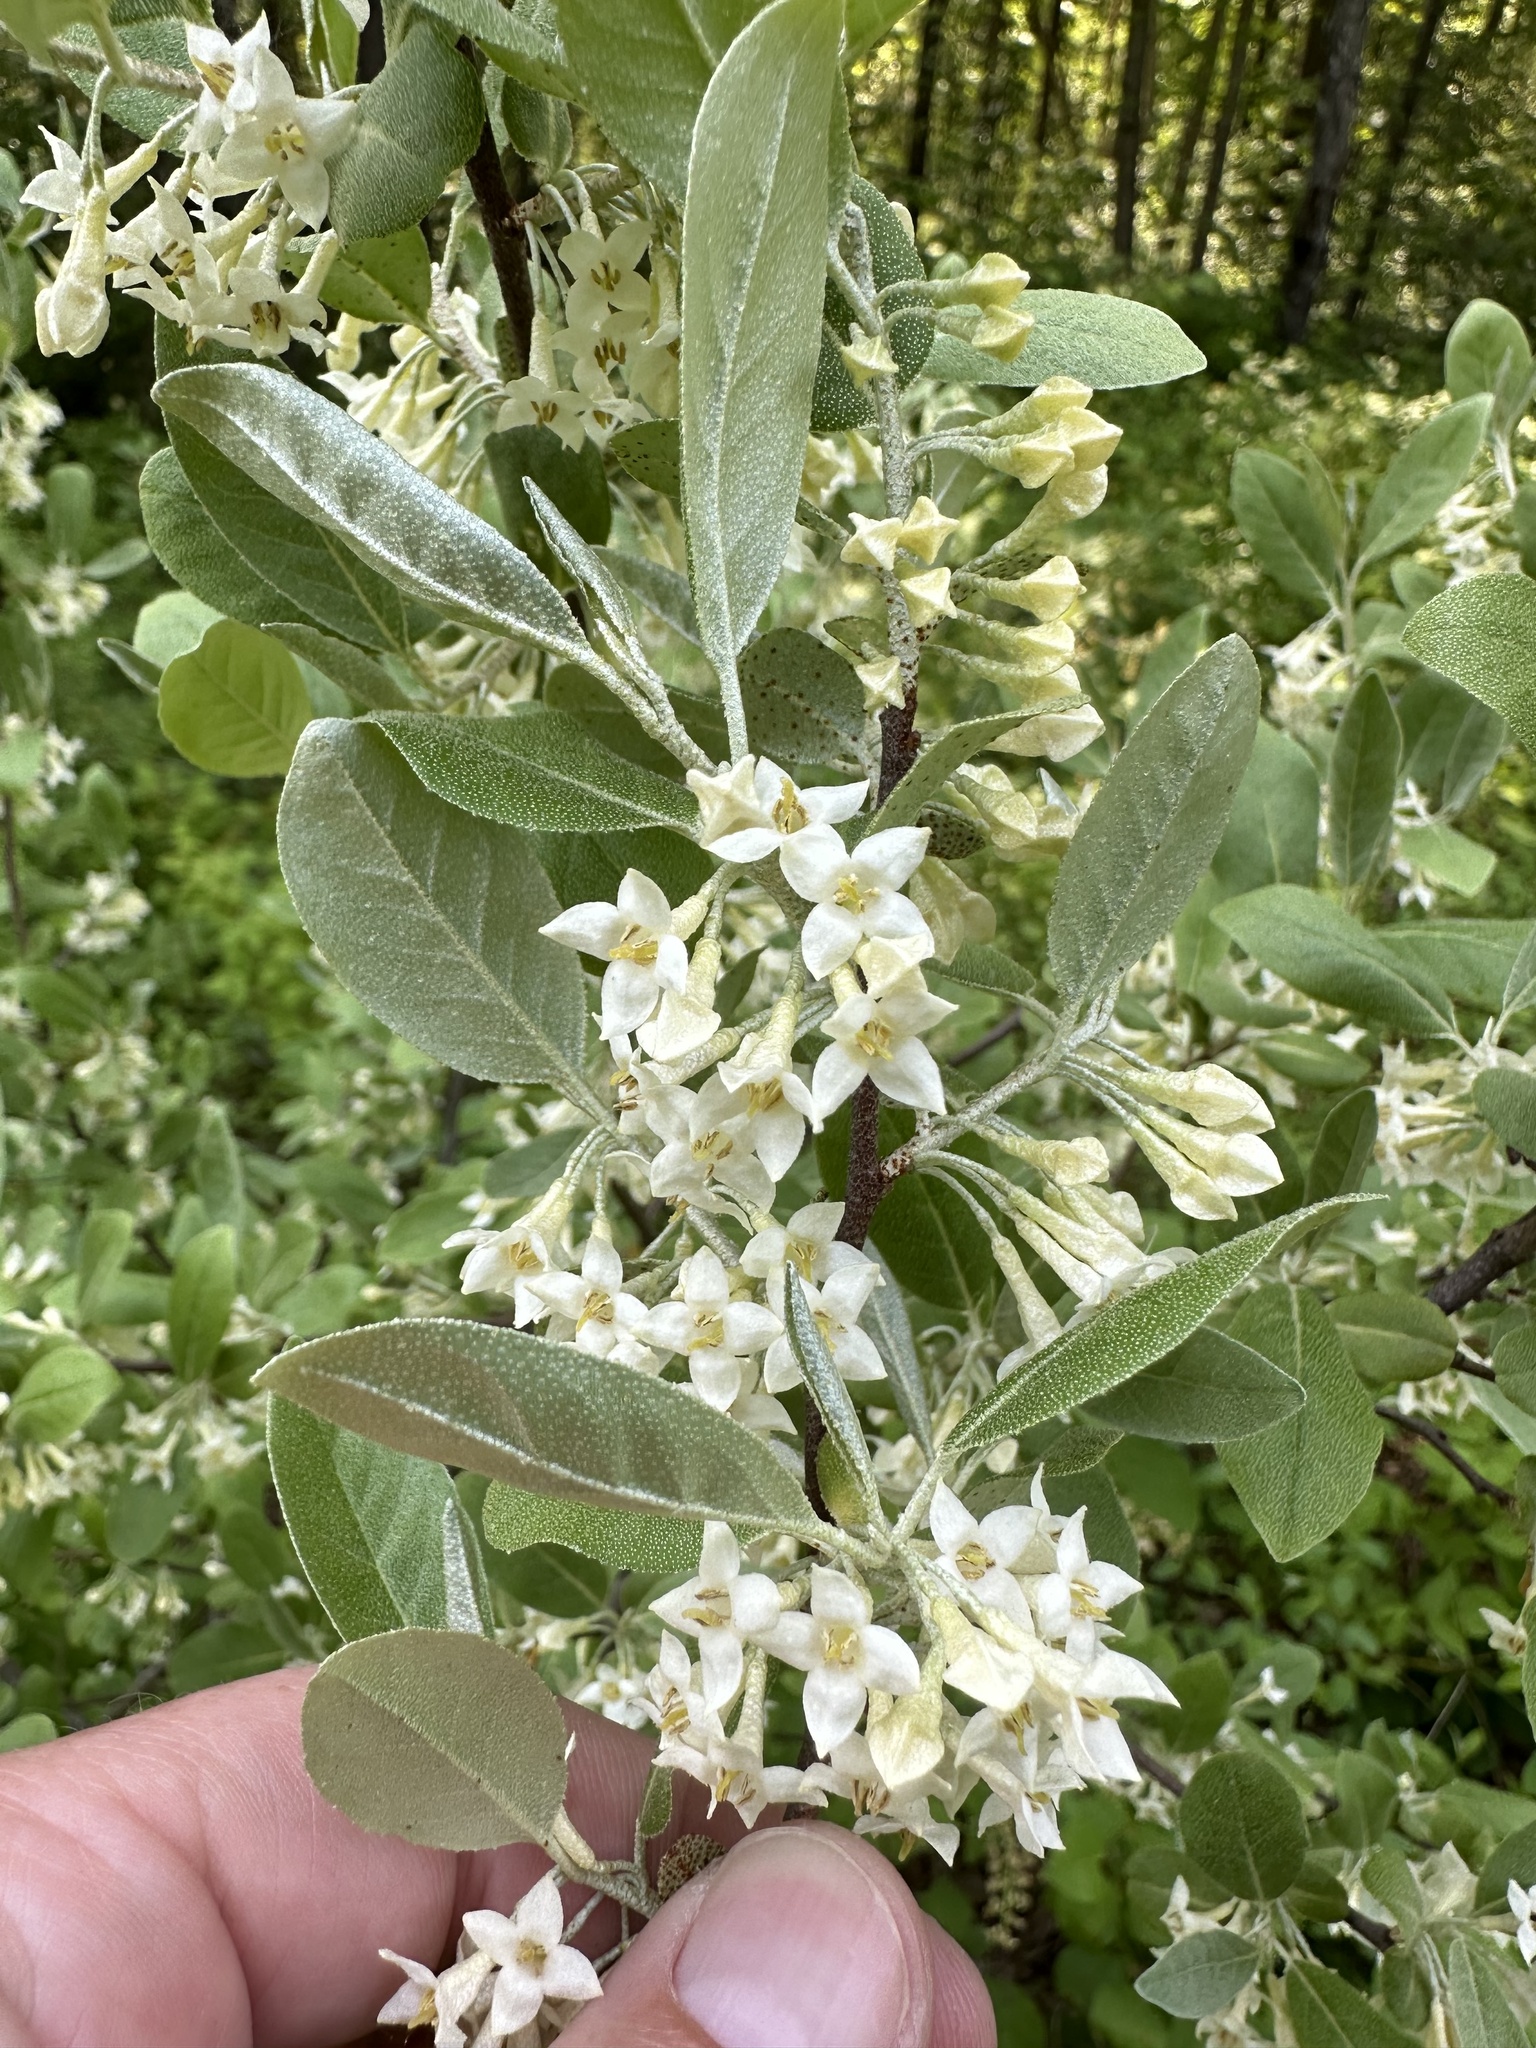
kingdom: Plantae
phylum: Tracheophyta
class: Magnoliopsida
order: Rosales
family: Elaeagnaceae
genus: Elaeagnus
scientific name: Elaeagnus umbellata
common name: Autumn olive
